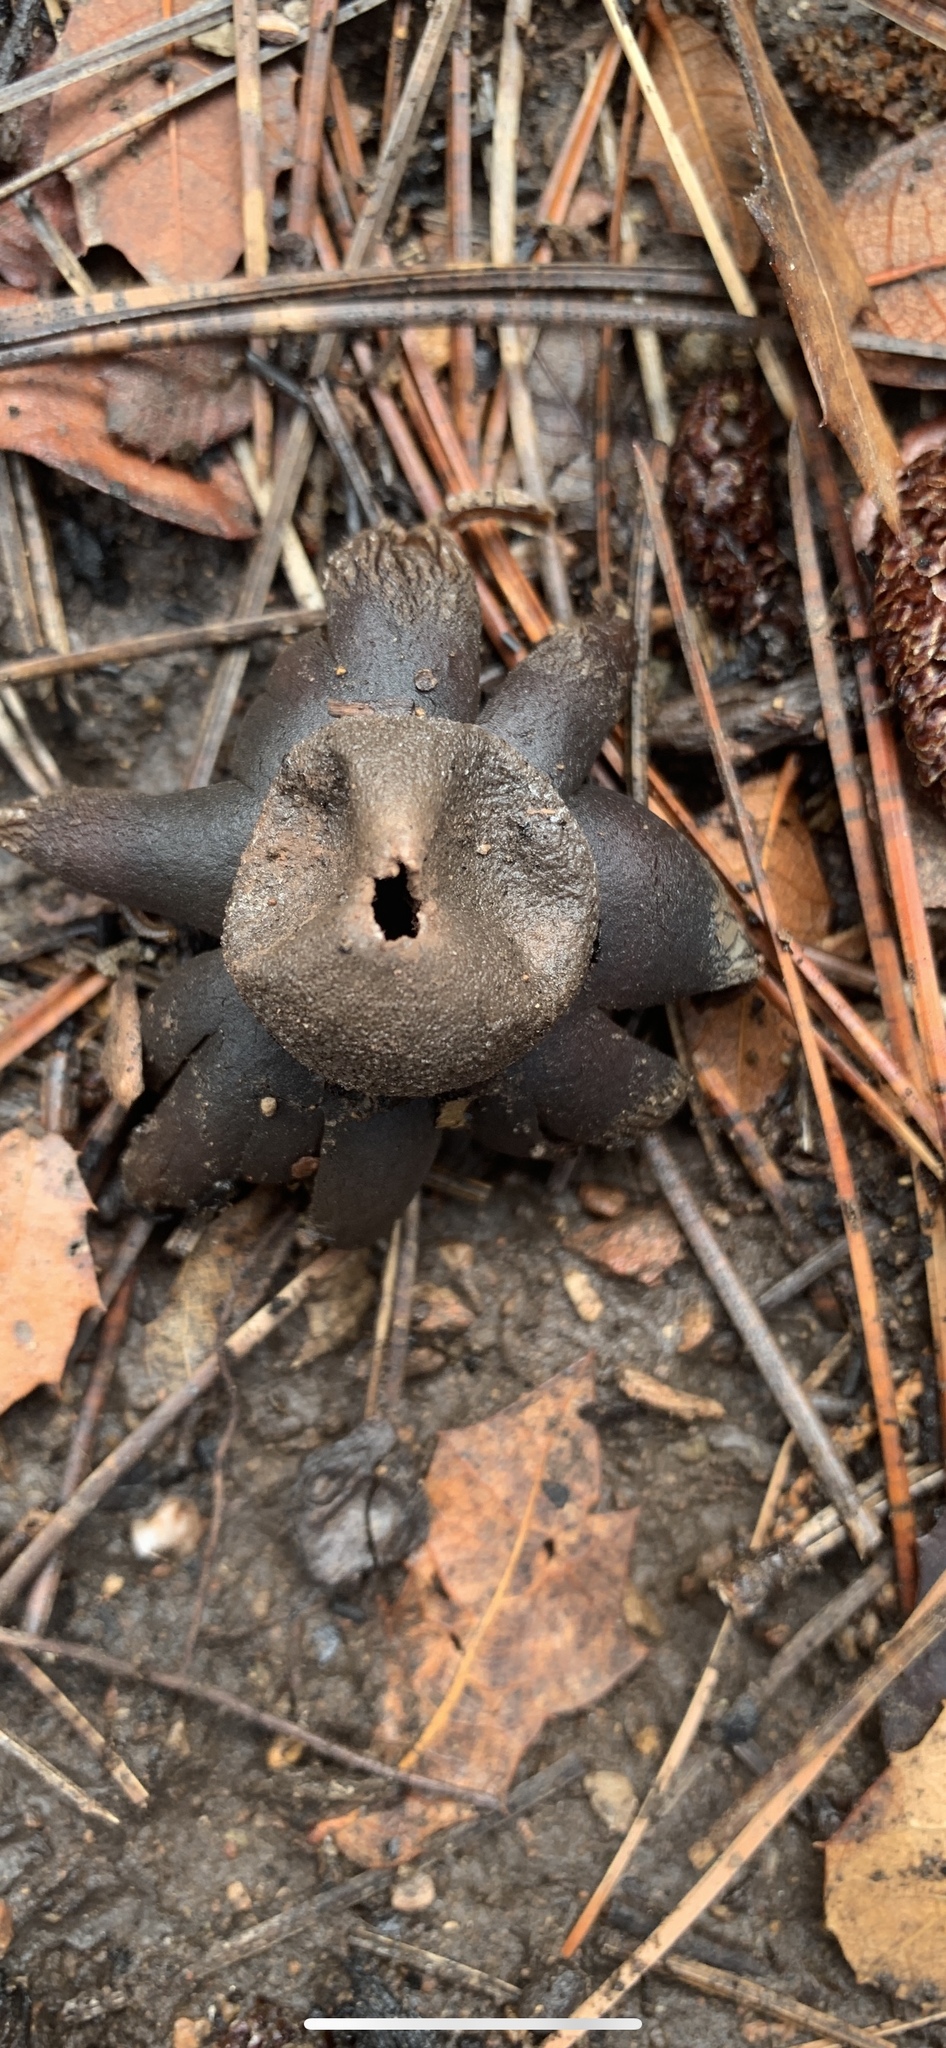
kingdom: Fungi
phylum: Basidiomycota
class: Agaricomycetes
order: Boletales
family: Diplocystidiaceae
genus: Astraeus
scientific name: Astraeus hygrometricus
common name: Barometer earthstar
